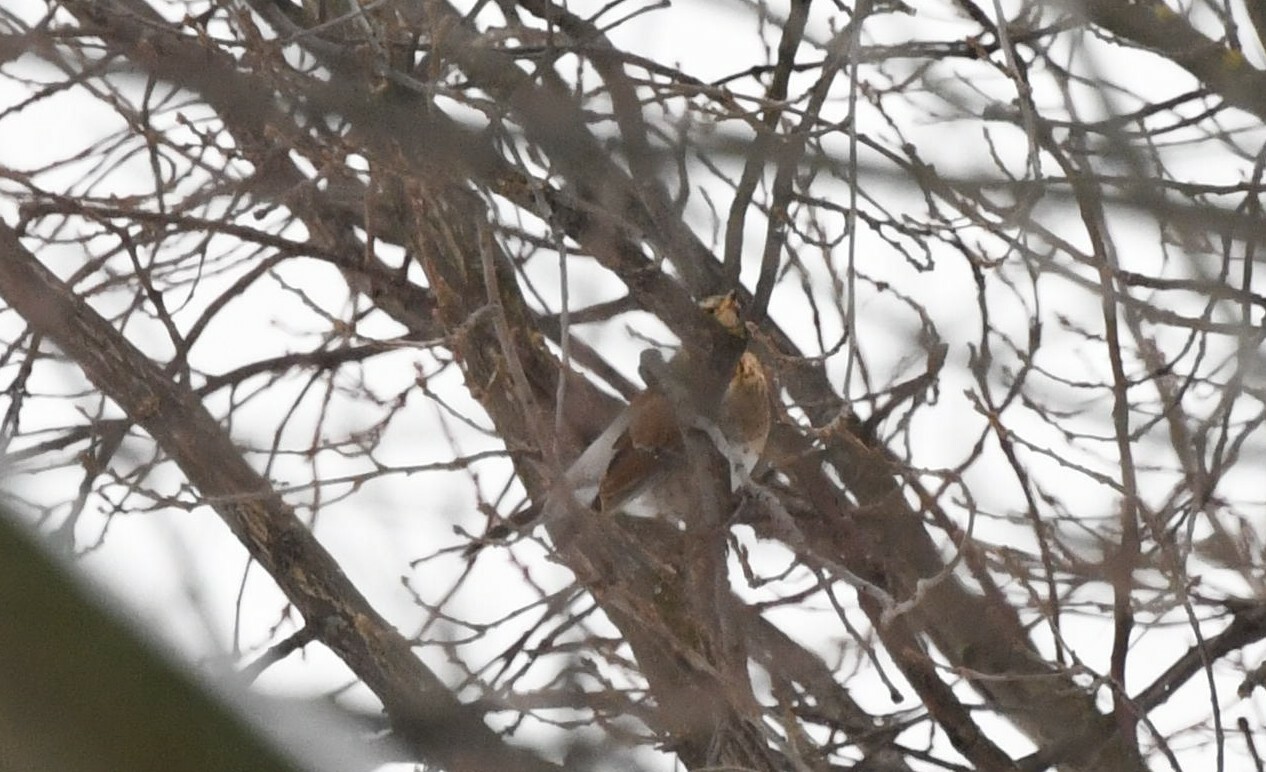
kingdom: Animalia
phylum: Chordata
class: Aves
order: Passeriformes
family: Turdidae
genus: Turdus
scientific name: Turdus pilaris
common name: Fieldfare
